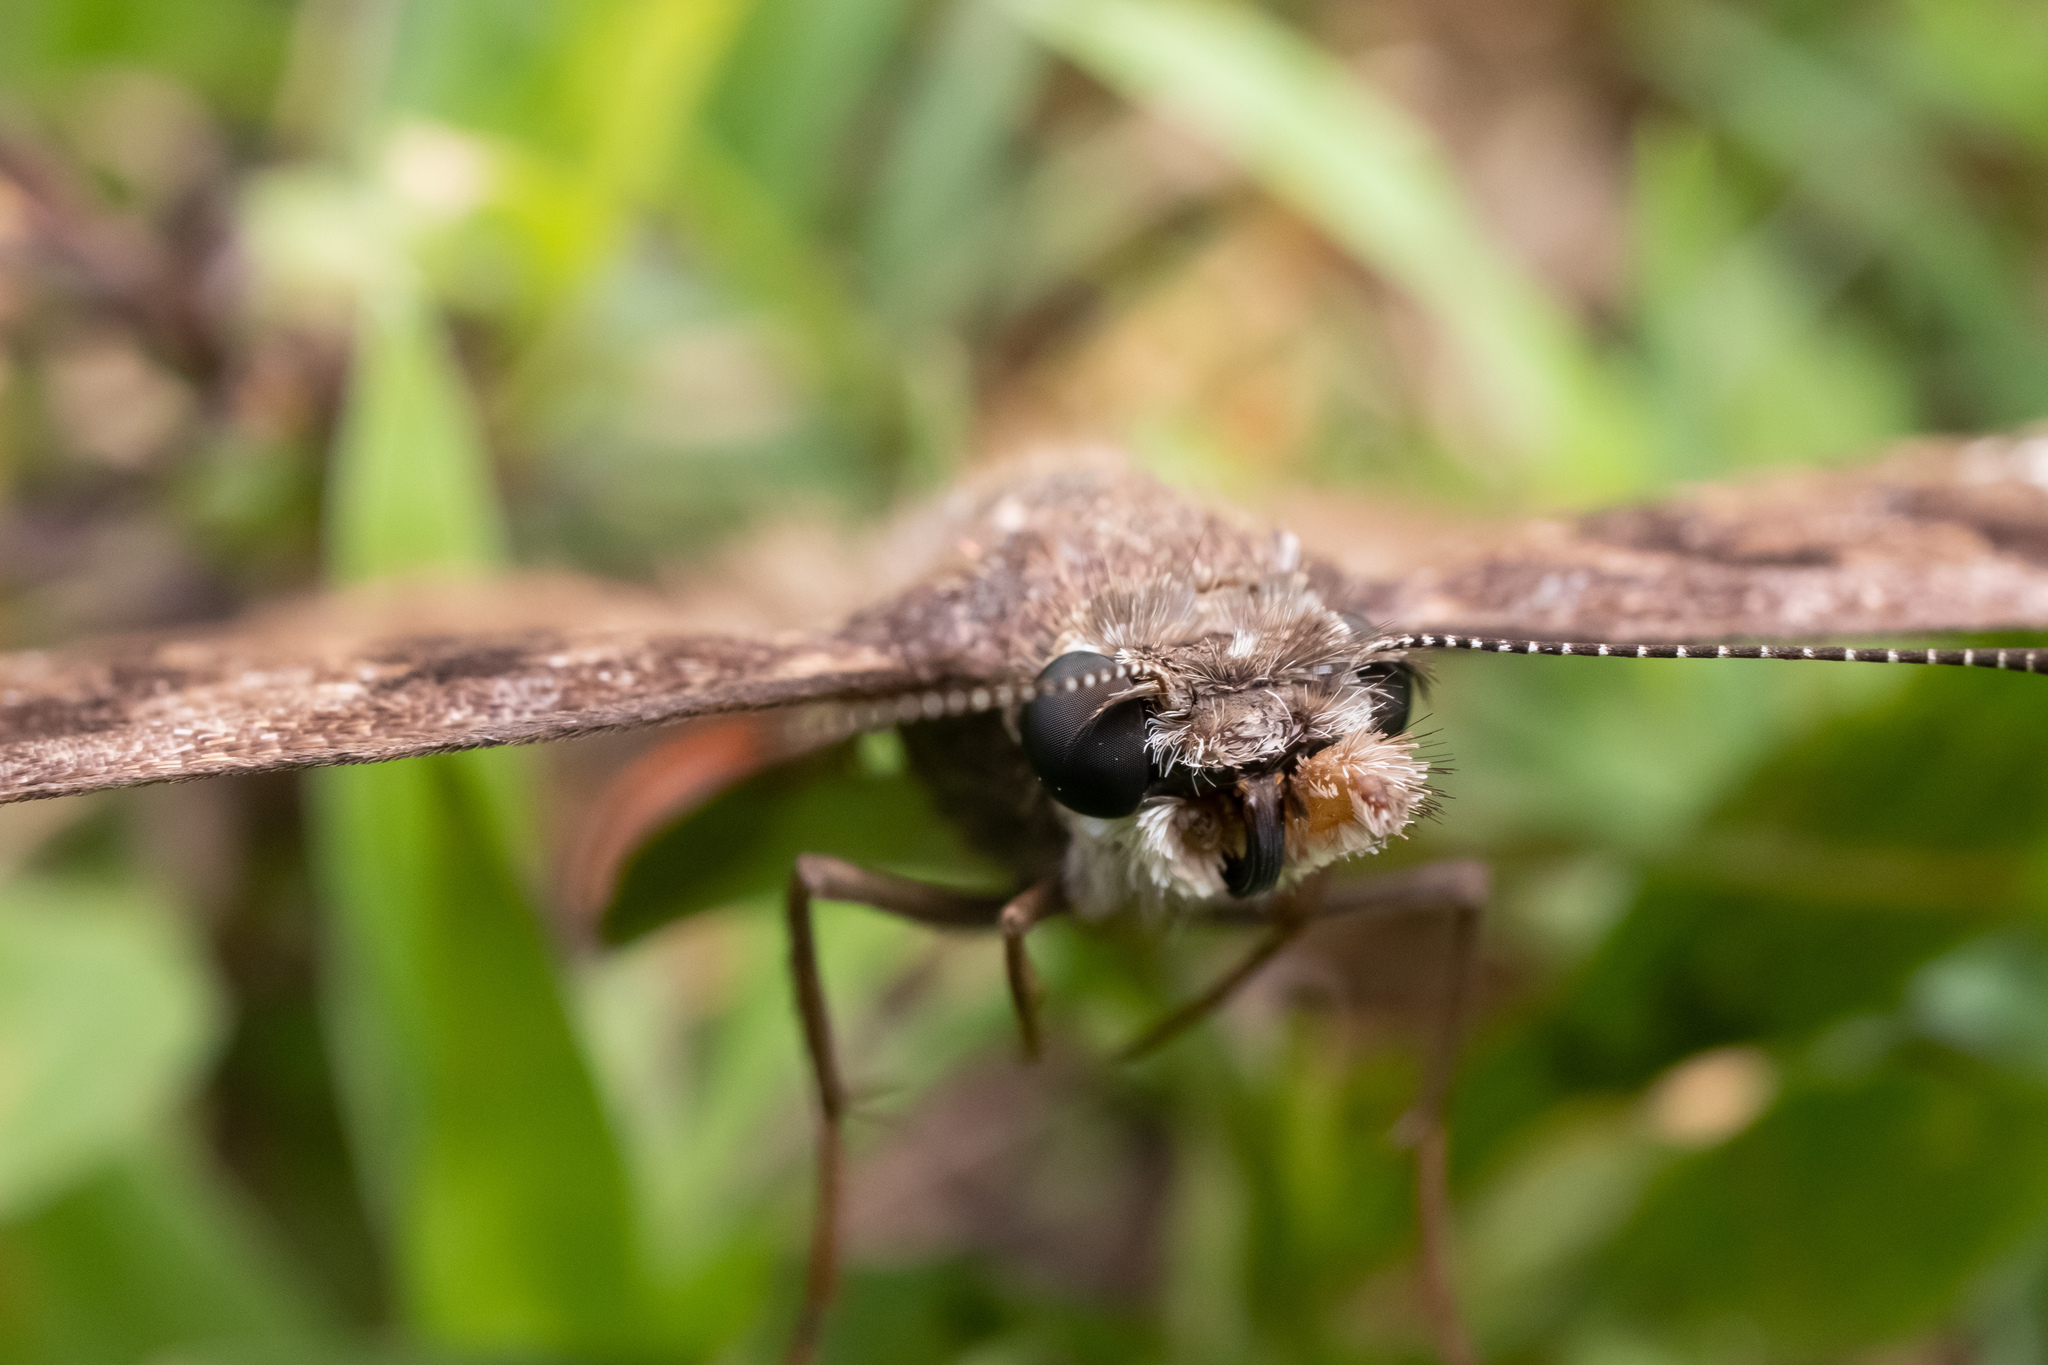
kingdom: Animalia
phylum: Arthropoda
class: Insecta
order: Lepidoptera
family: Hesperiidae
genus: Erynnis
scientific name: Erynnis horatius
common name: Horace's duskywing
